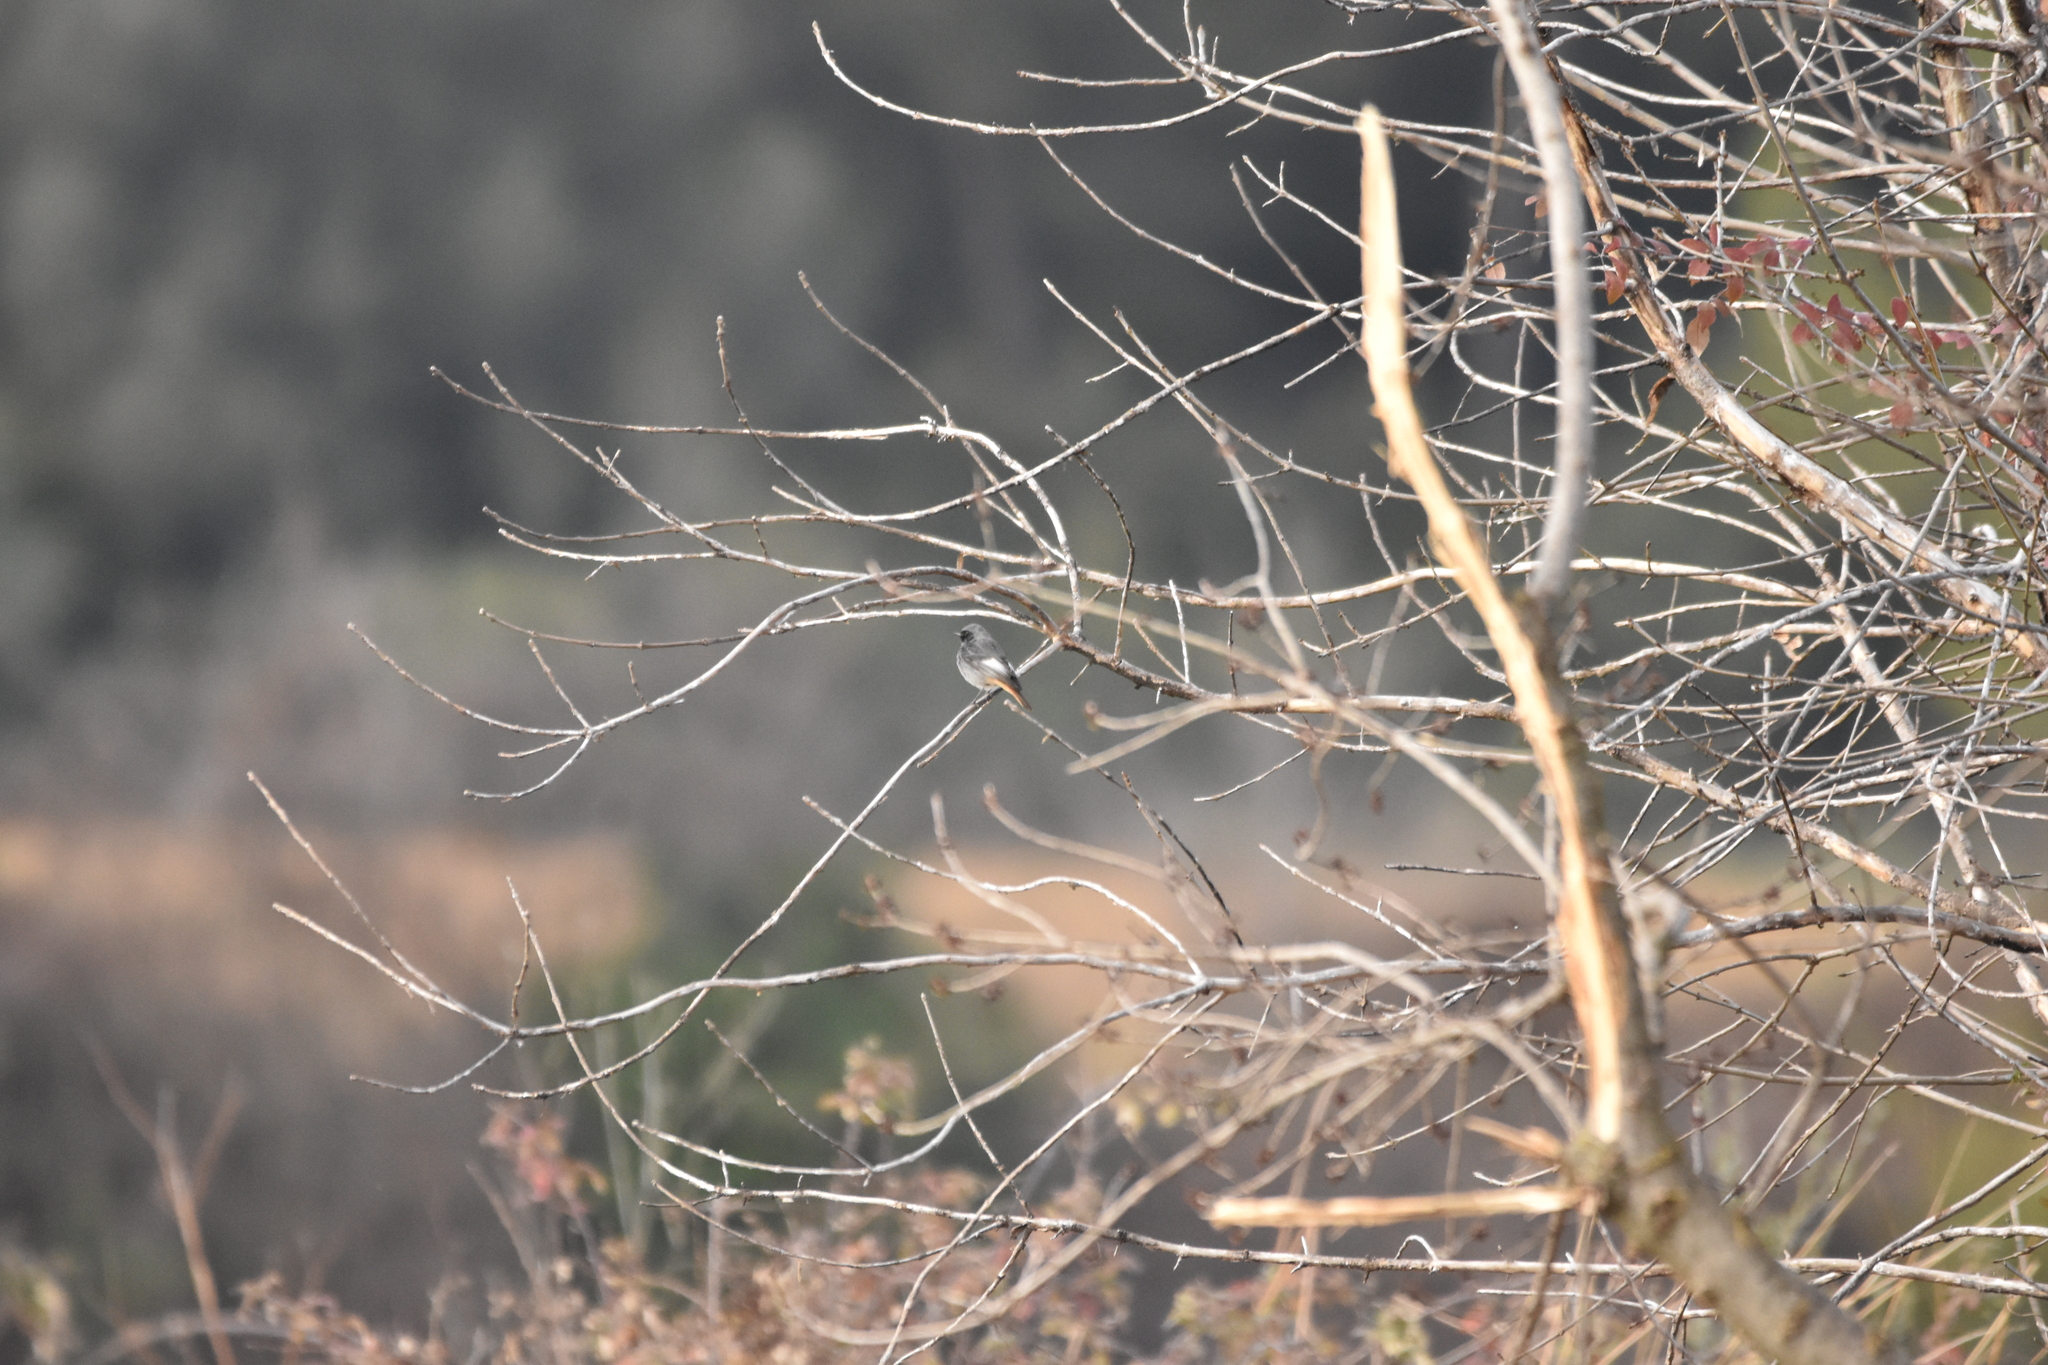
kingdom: Animalia
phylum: Chordata
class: Aves
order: Passeriformes
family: Muscicapidae
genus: Phoenicurus
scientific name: Phoenicurus ochruros
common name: Black redstart
